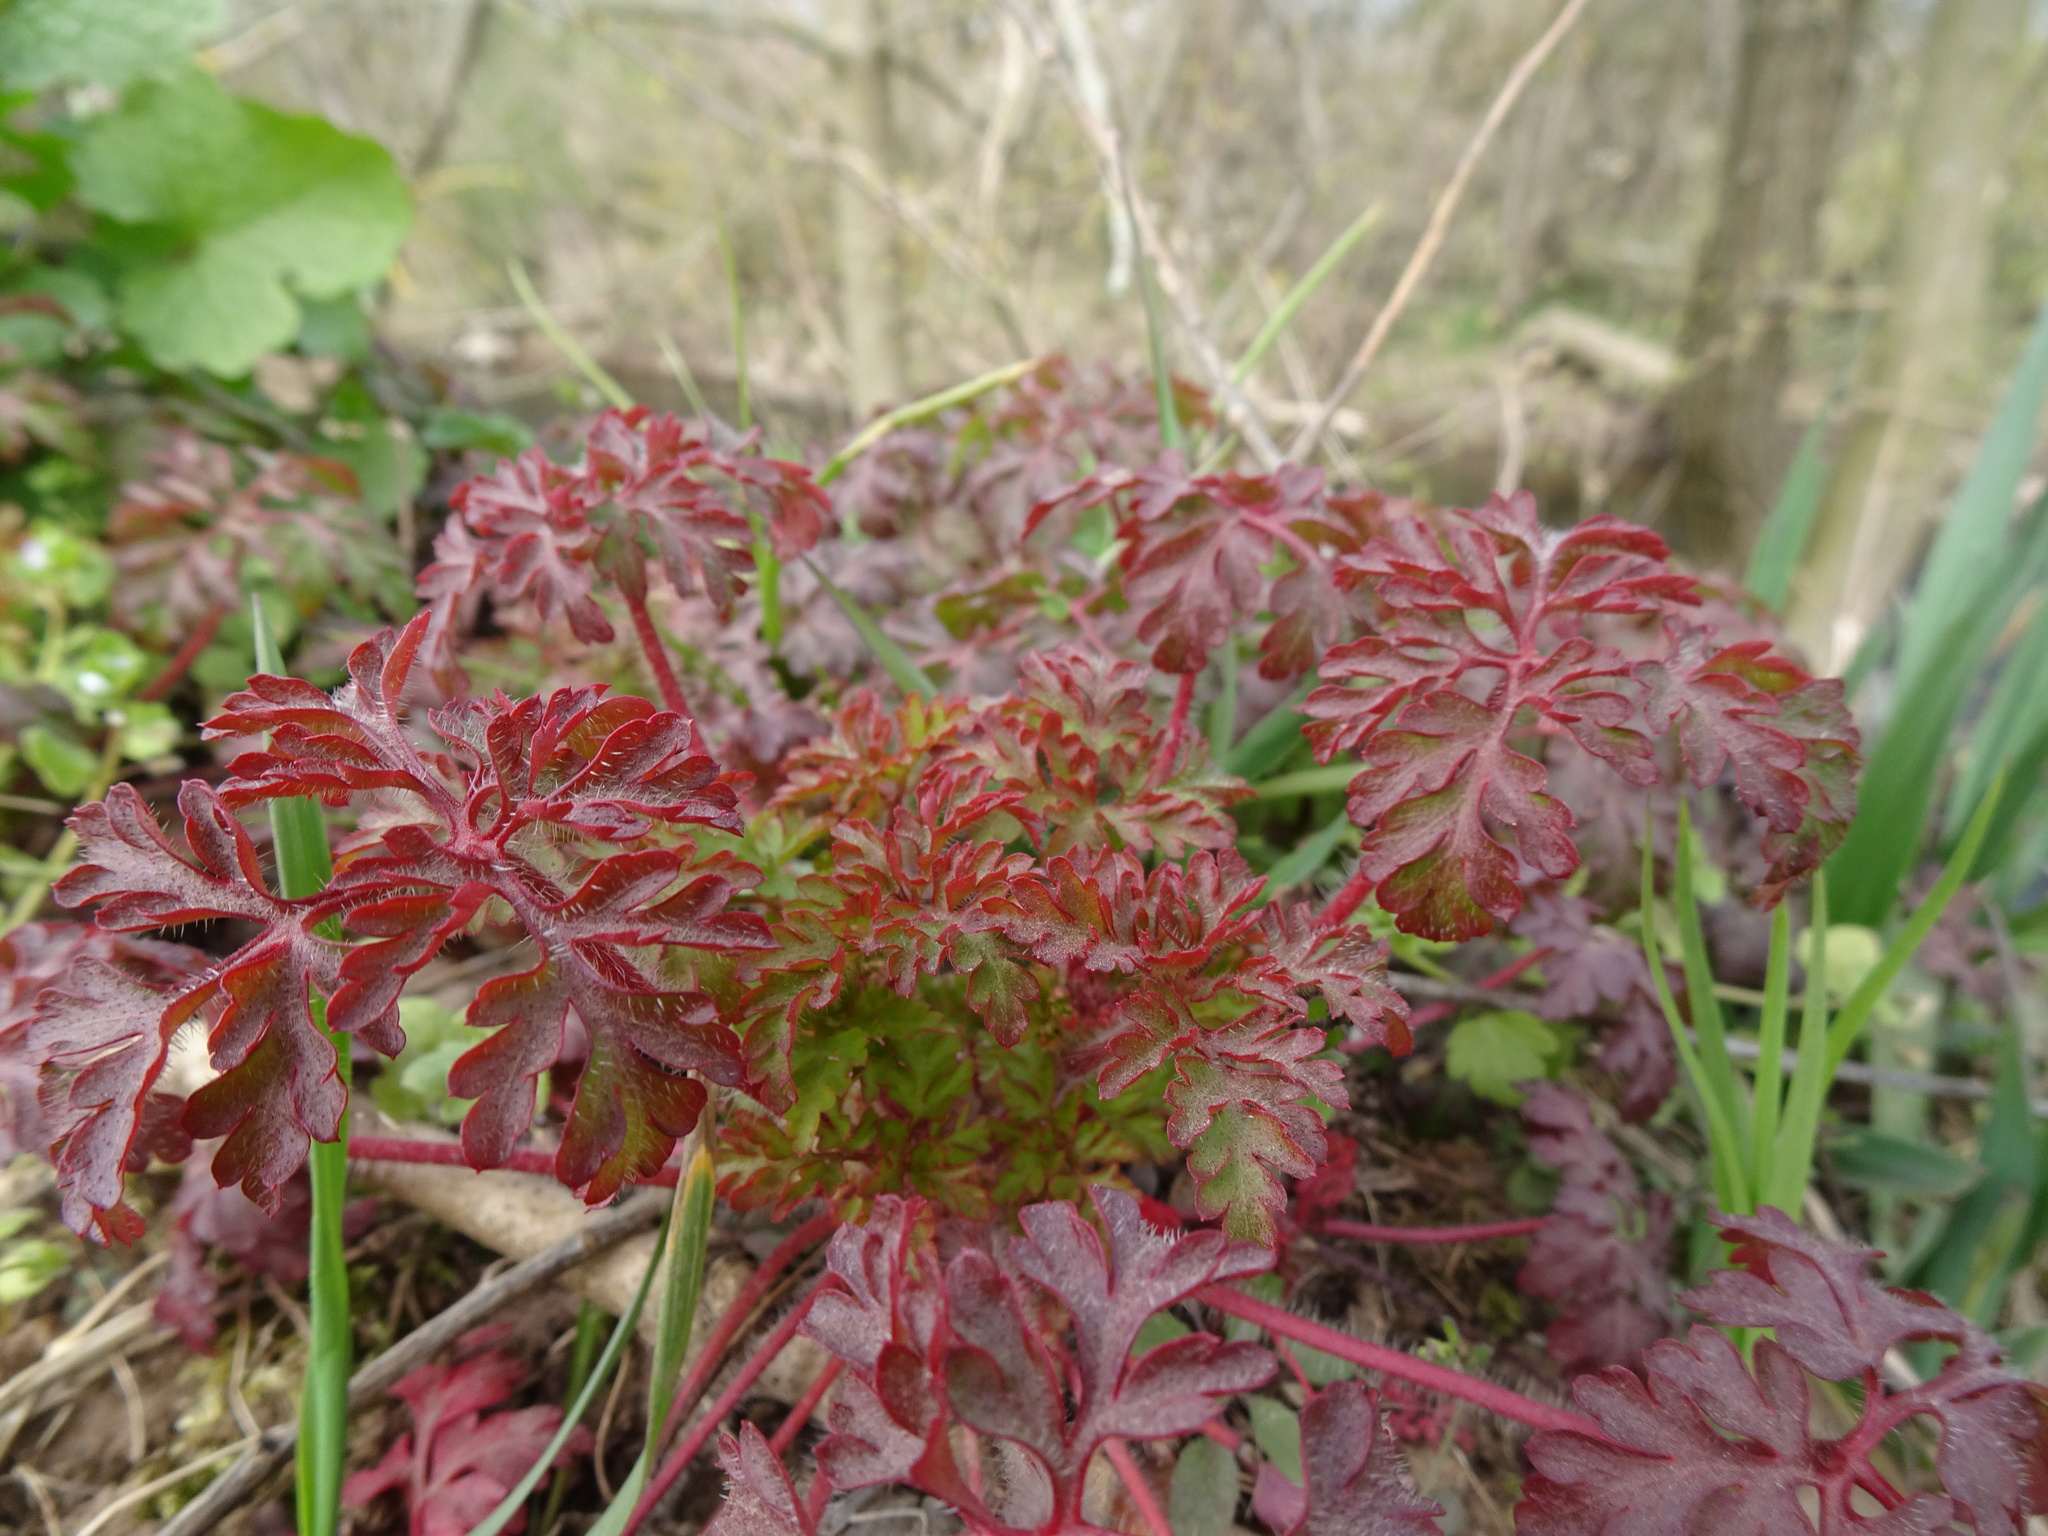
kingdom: Plantae
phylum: Tracheophyta
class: Magnoliopsida
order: Geraniales
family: Geraniaceae
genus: Geranium
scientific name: Geranium robertianum
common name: Herb-robert
